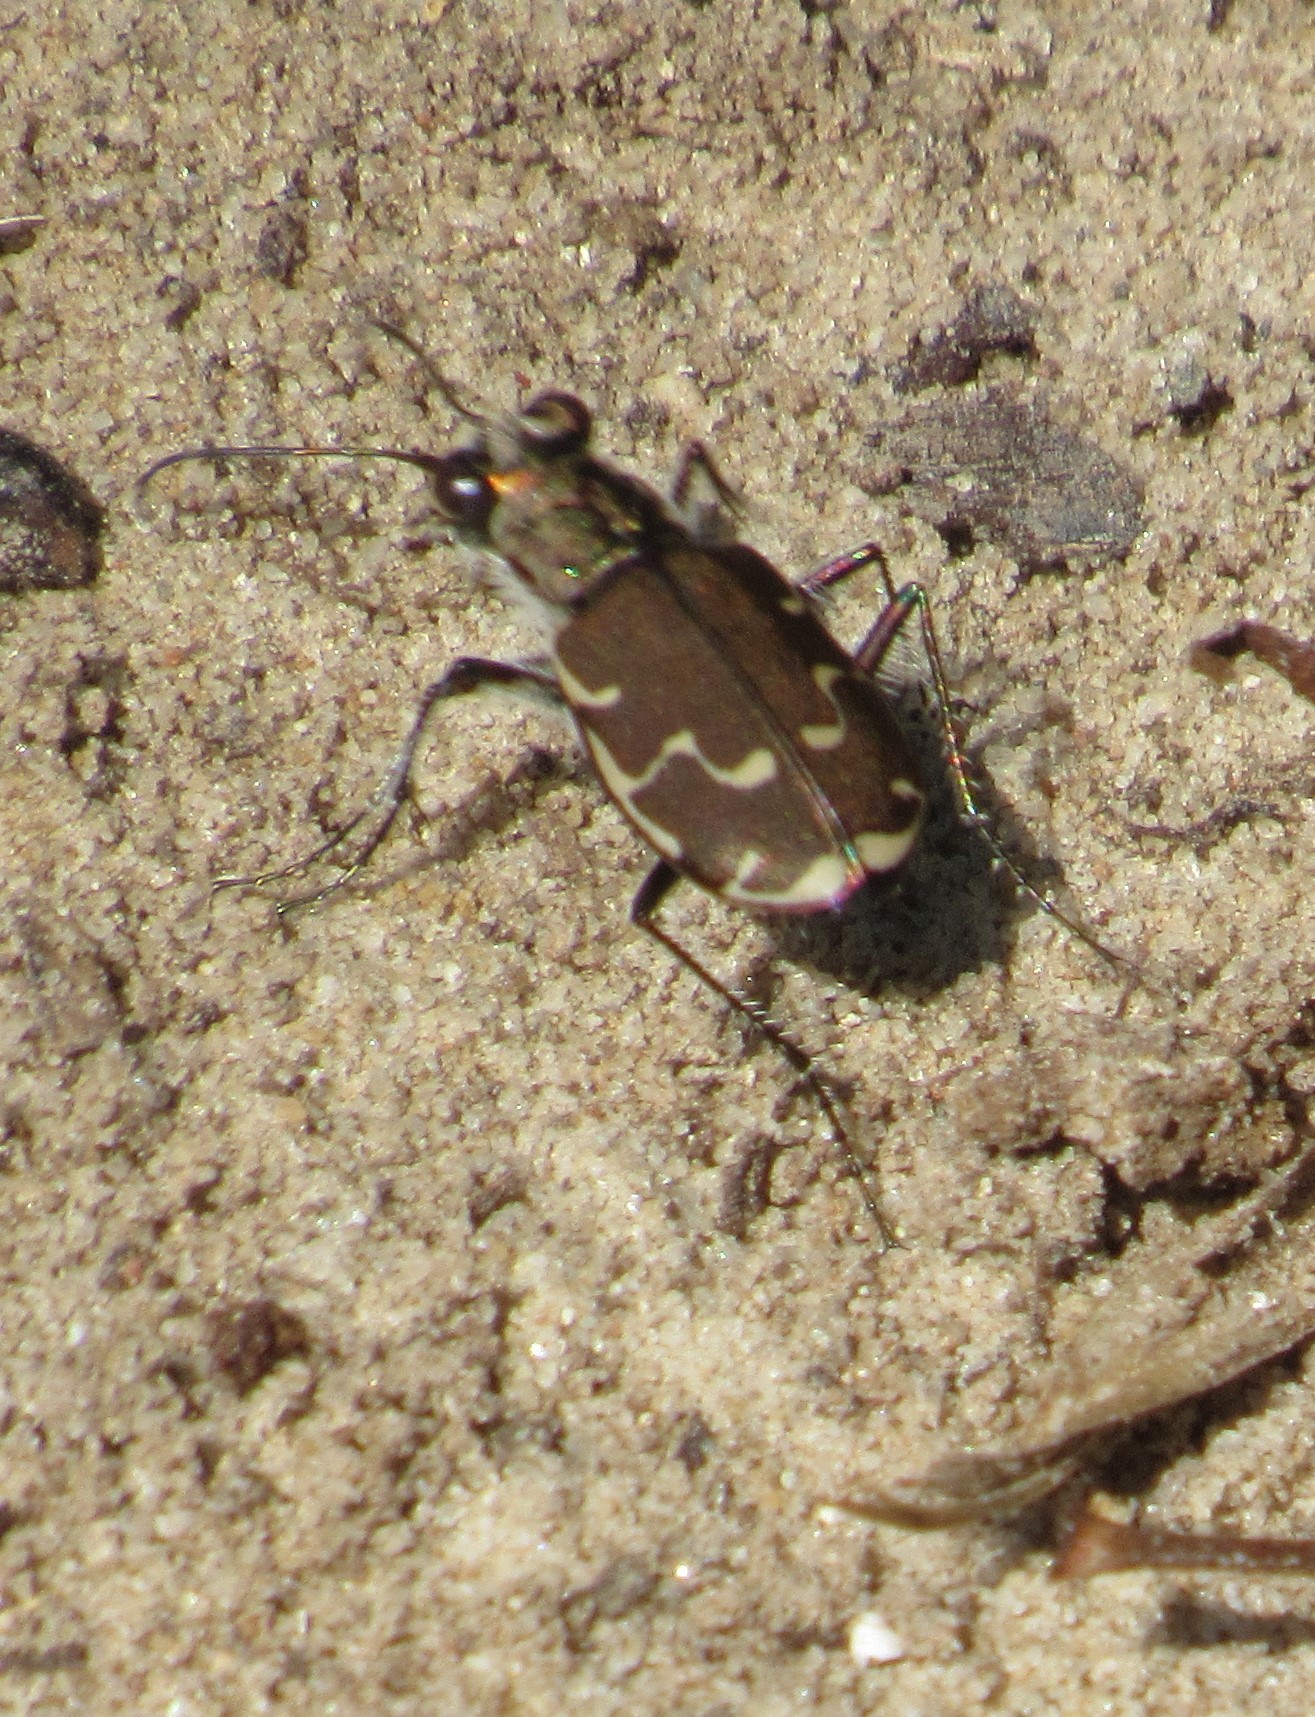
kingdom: Animalia
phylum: Arthropoda
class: Insecta
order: Coleoptera
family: Carabidae
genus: Cicindela
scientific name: Cicindela repanda
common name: Bronzed tiger beetle
